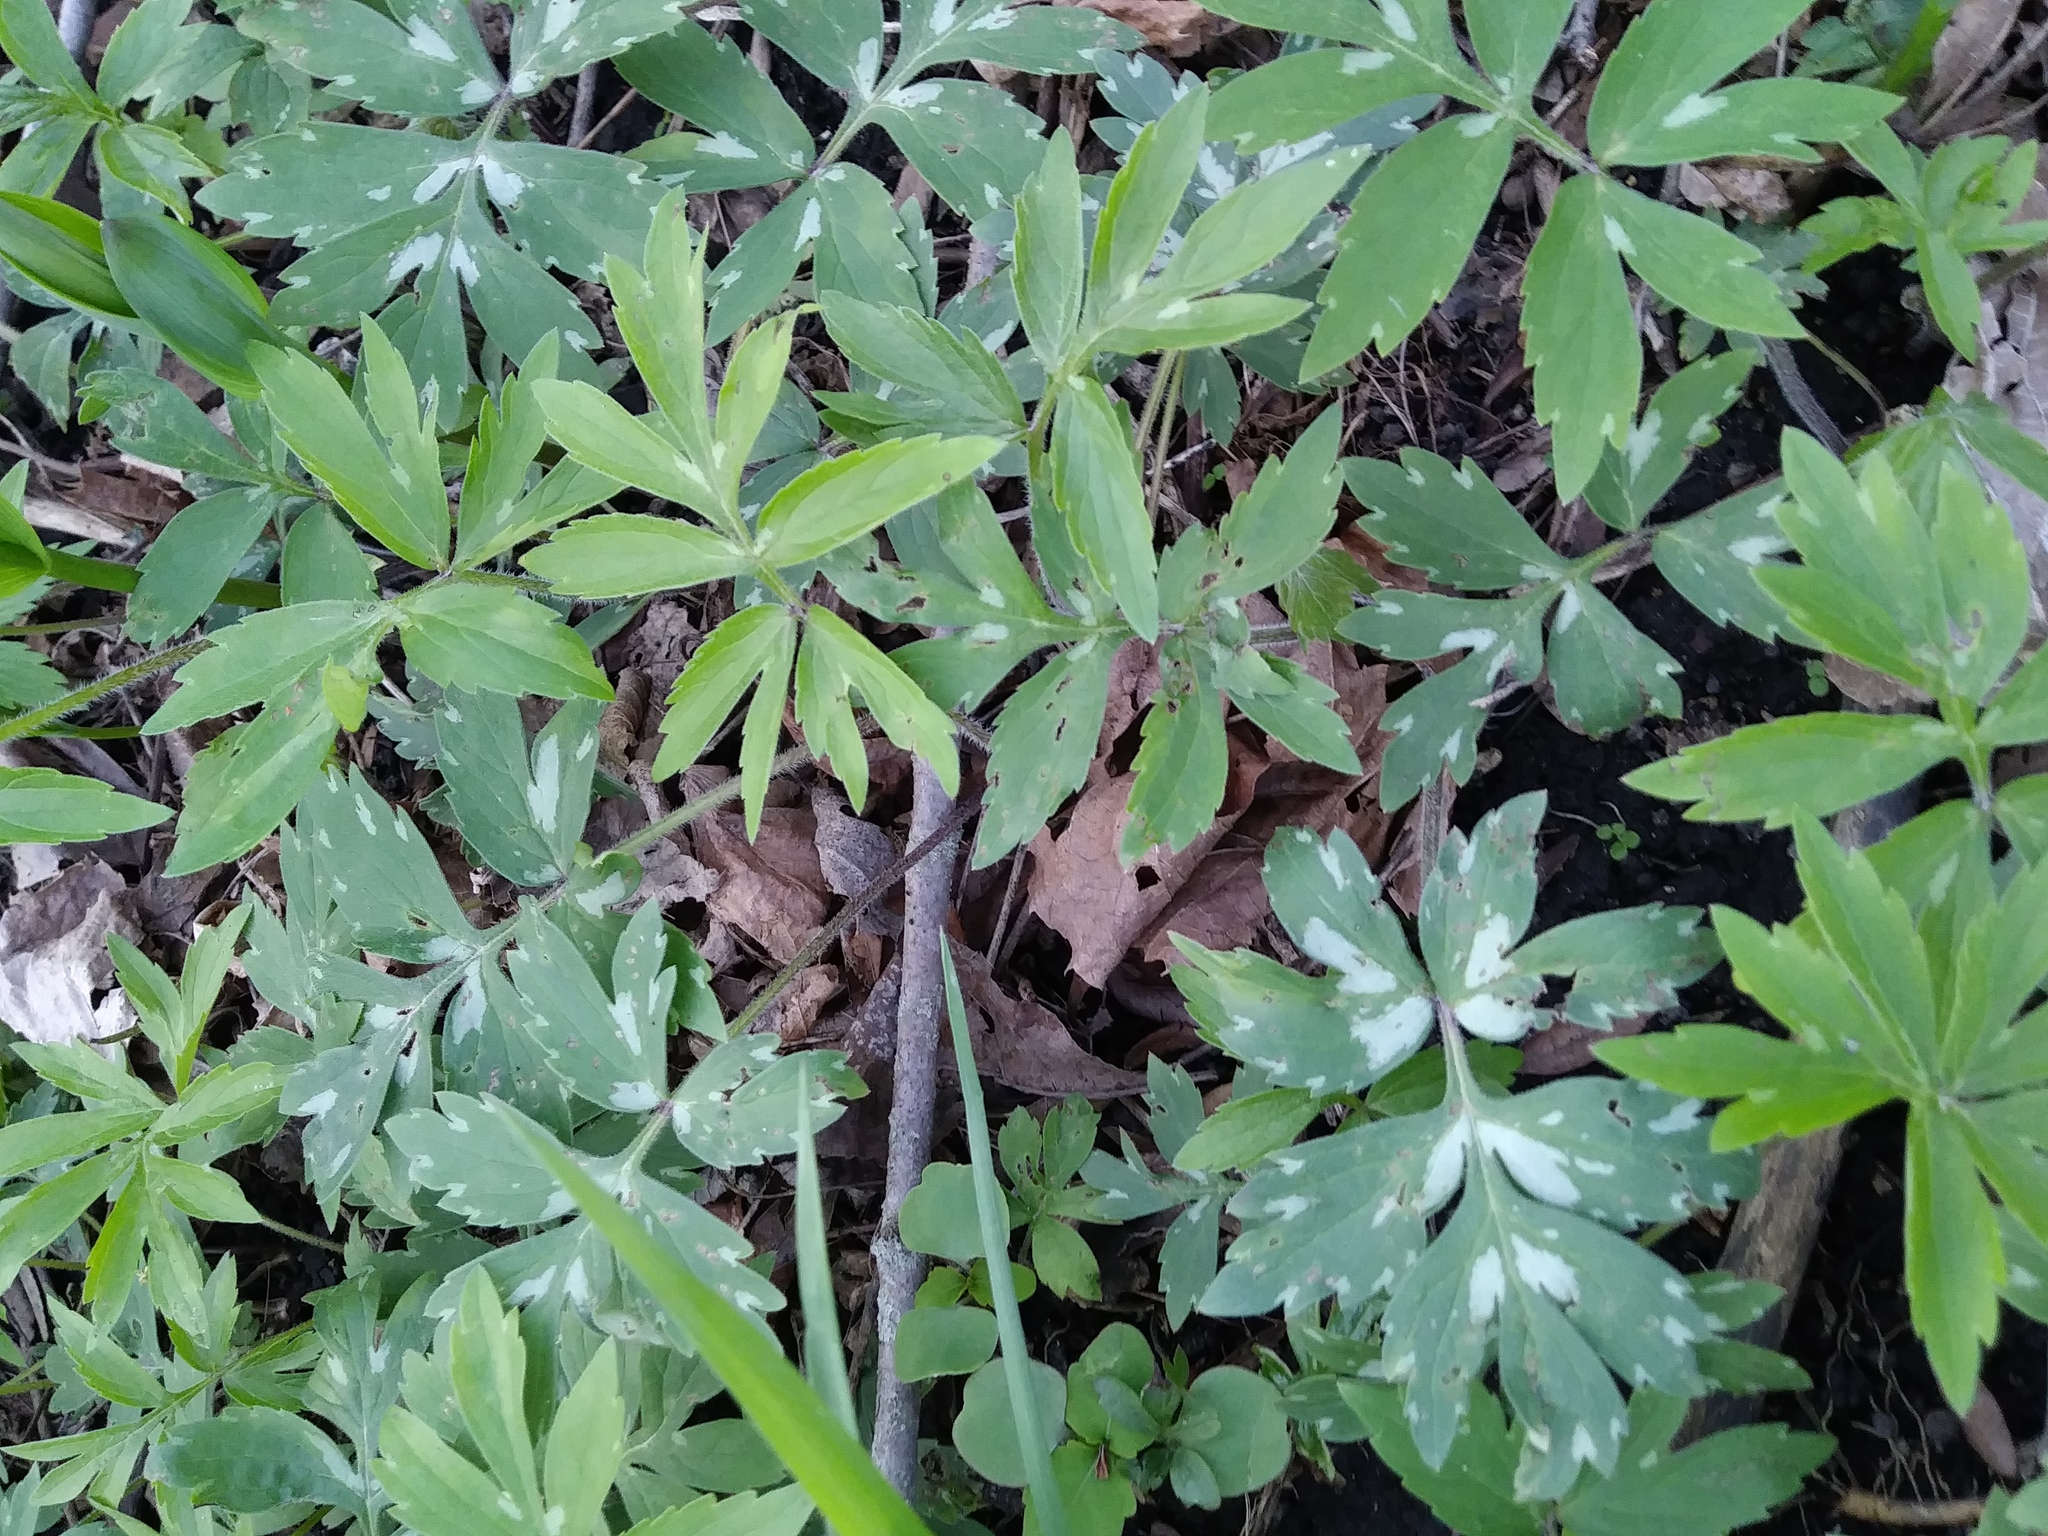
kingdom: Plantae
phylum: Tracheophyta
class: Magnoliopsida
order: Boraginales
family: Hydrophyllaceae
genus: Hydrophyllum
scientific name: Hydrophyllum virginianum
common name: Virginia waterleaf
